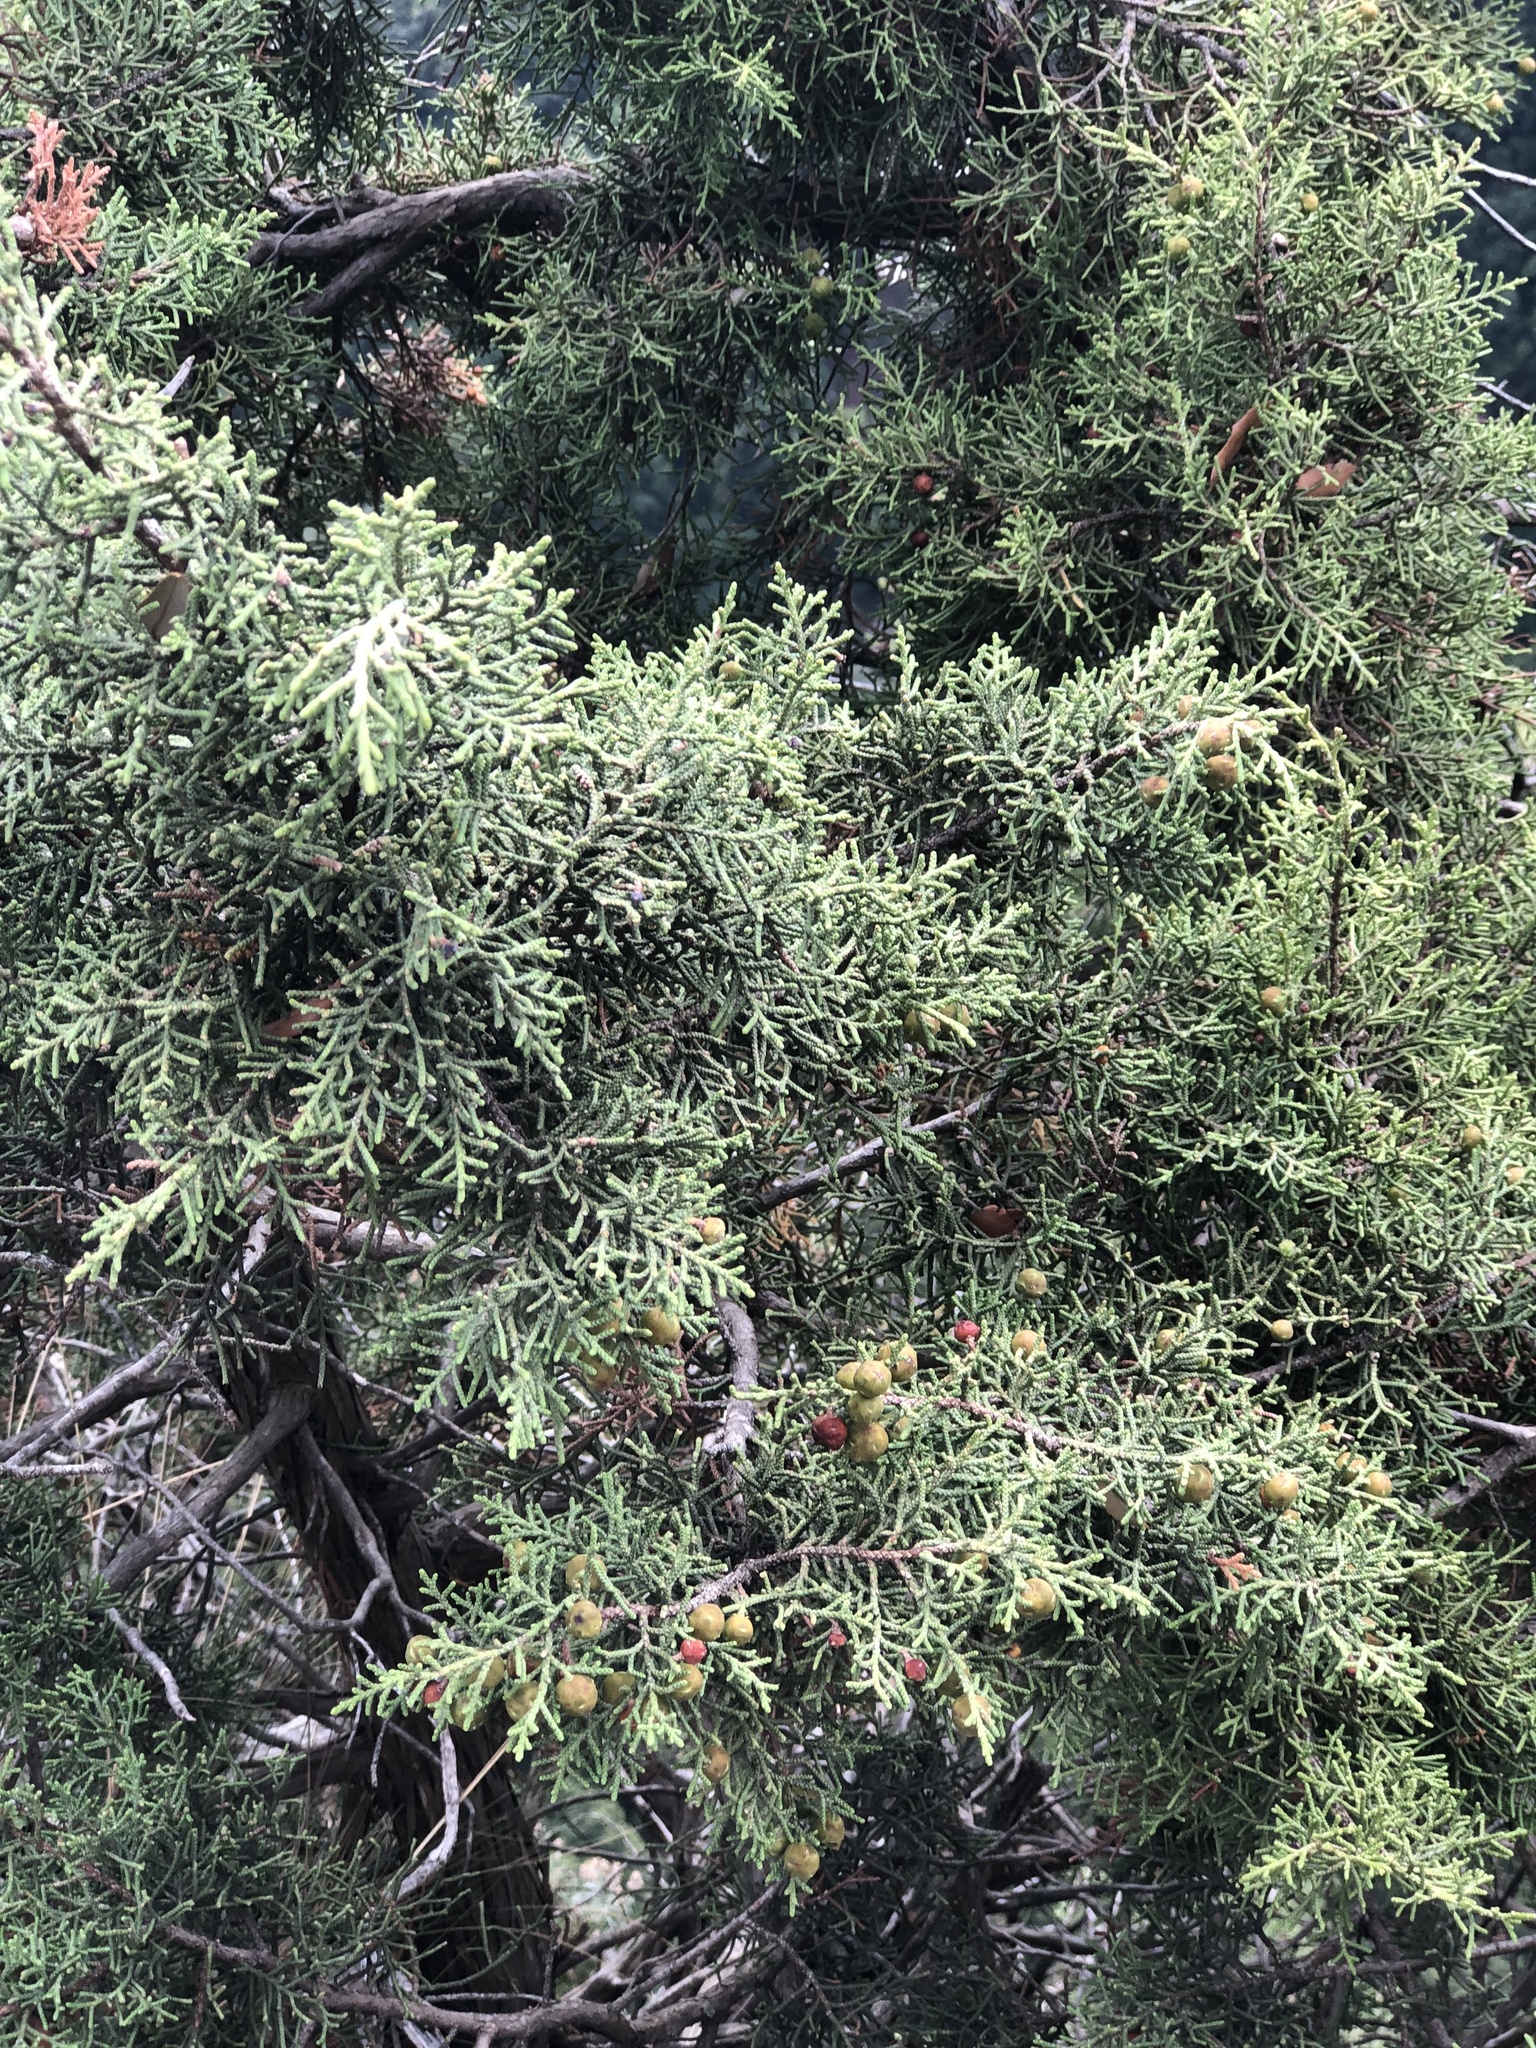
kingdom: Plantae
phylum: Tracheophyta
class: Pinopsida
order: Pinales
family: Cupressaceae
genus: Juniperus
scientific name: Juniperus phoenicea
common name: Phoenician juniper
